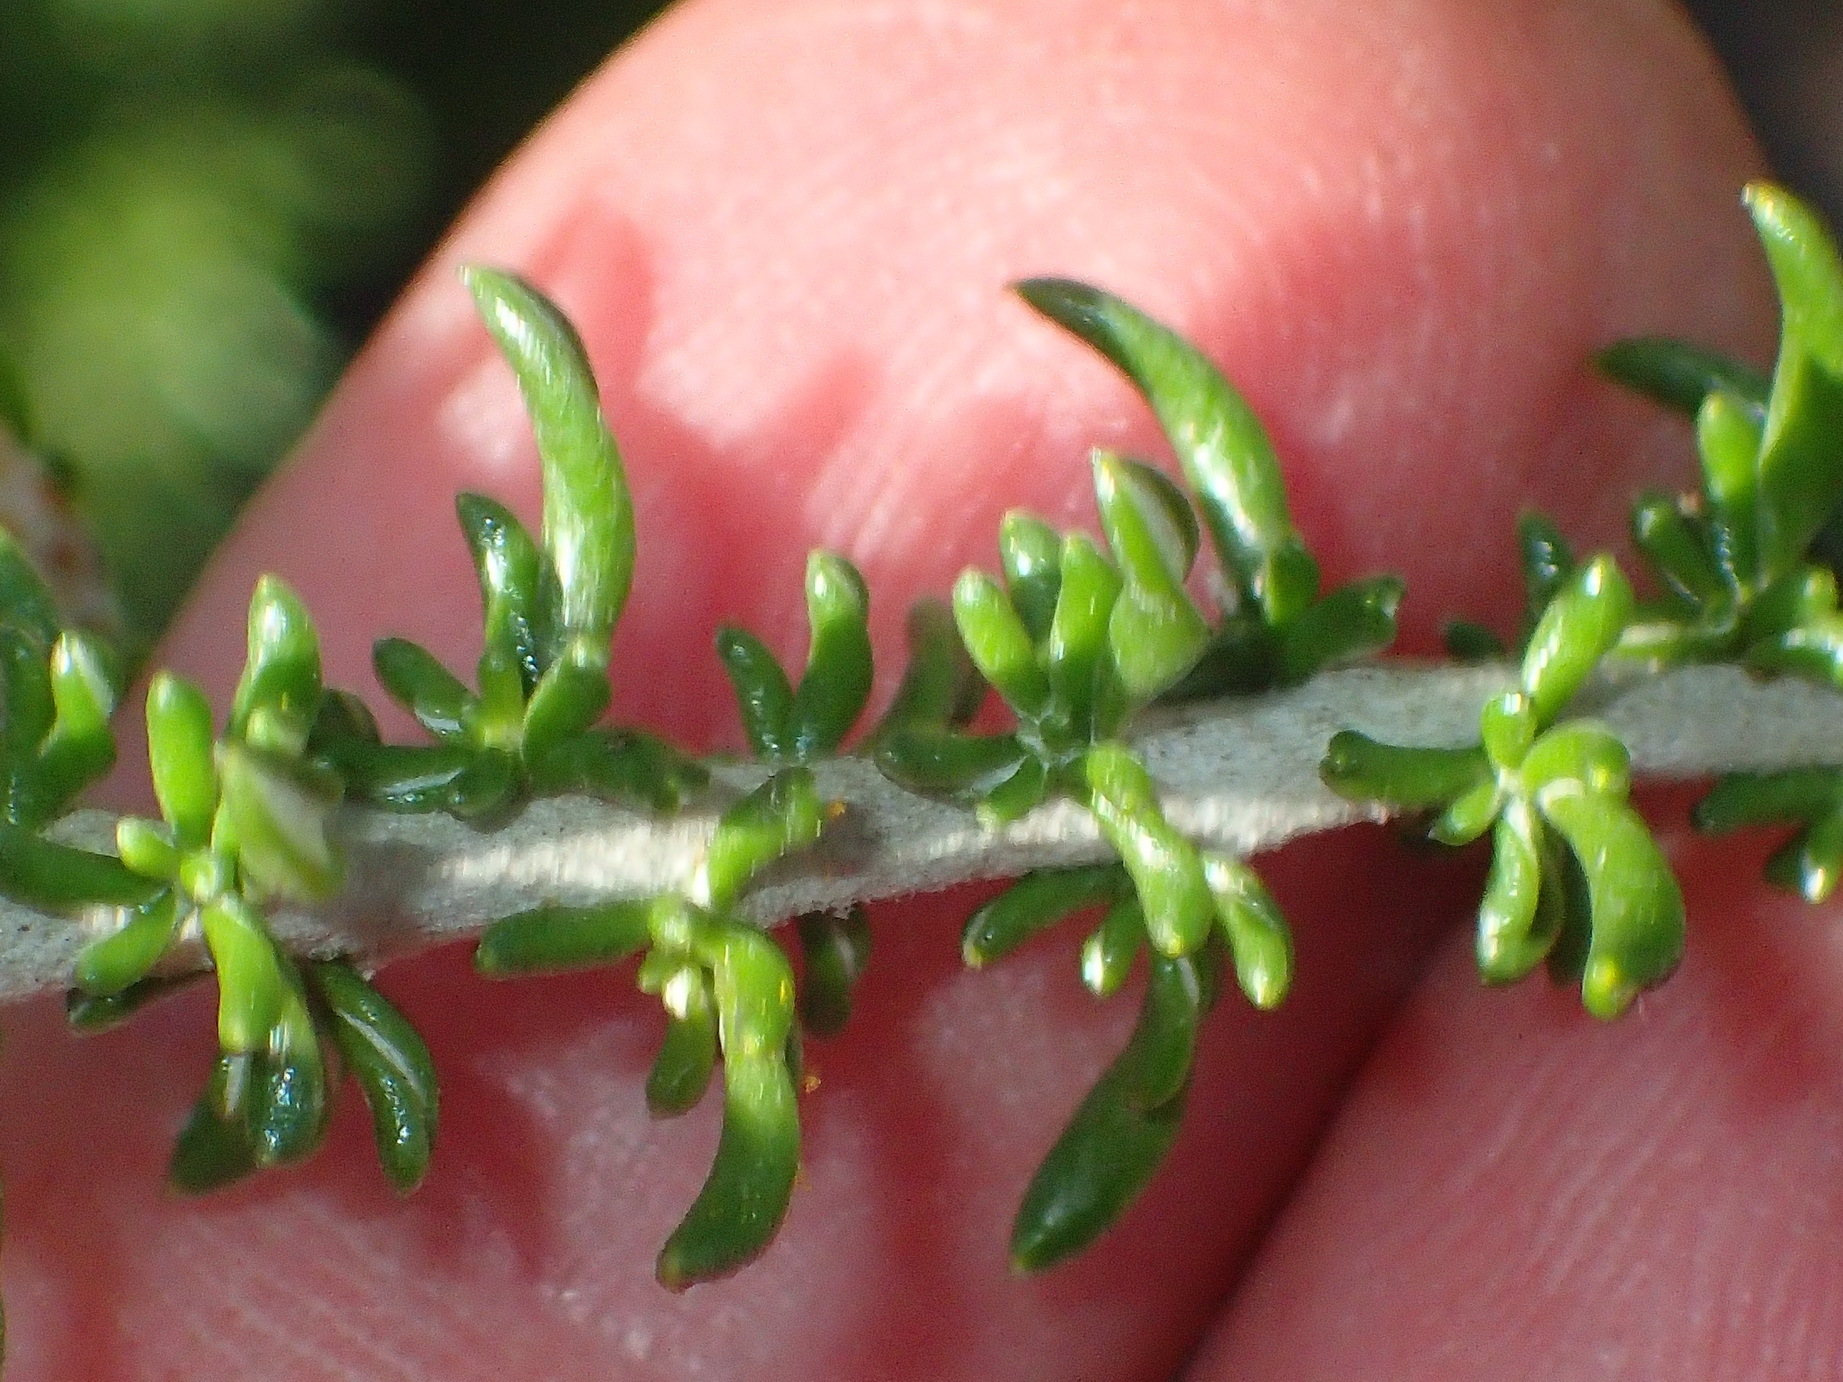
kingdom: Plantae
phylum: Tracheophyta
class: Magnoliopsida
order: Asterales
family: Asteraceae
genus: Metalasia
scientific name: Metalasia muricata
